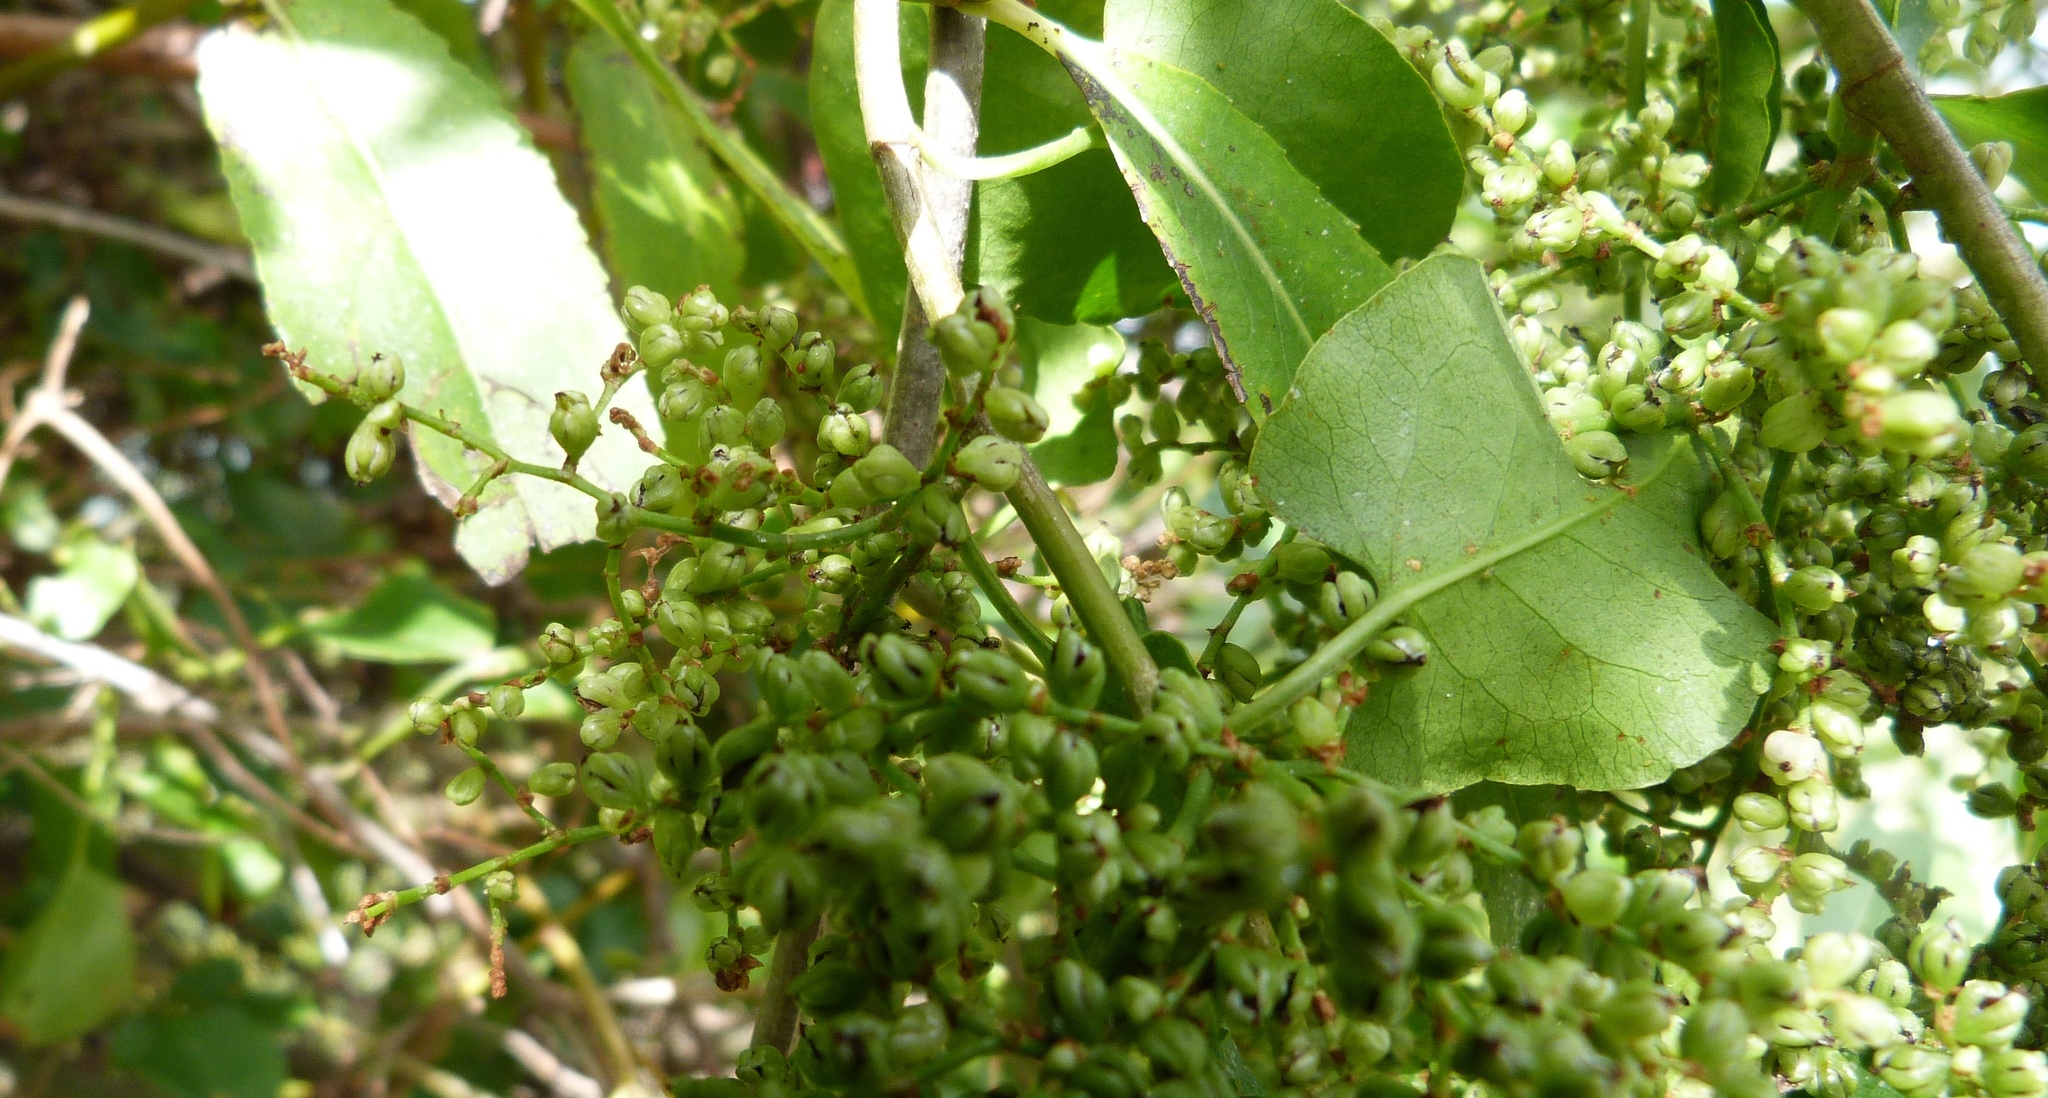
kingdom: Plantae
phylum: Tracheophyta
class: Magnoliopsida
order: Caryophyllales
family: Polygonaceae
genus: Muehlenbeckia
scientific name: Muehlenbeckia australis
